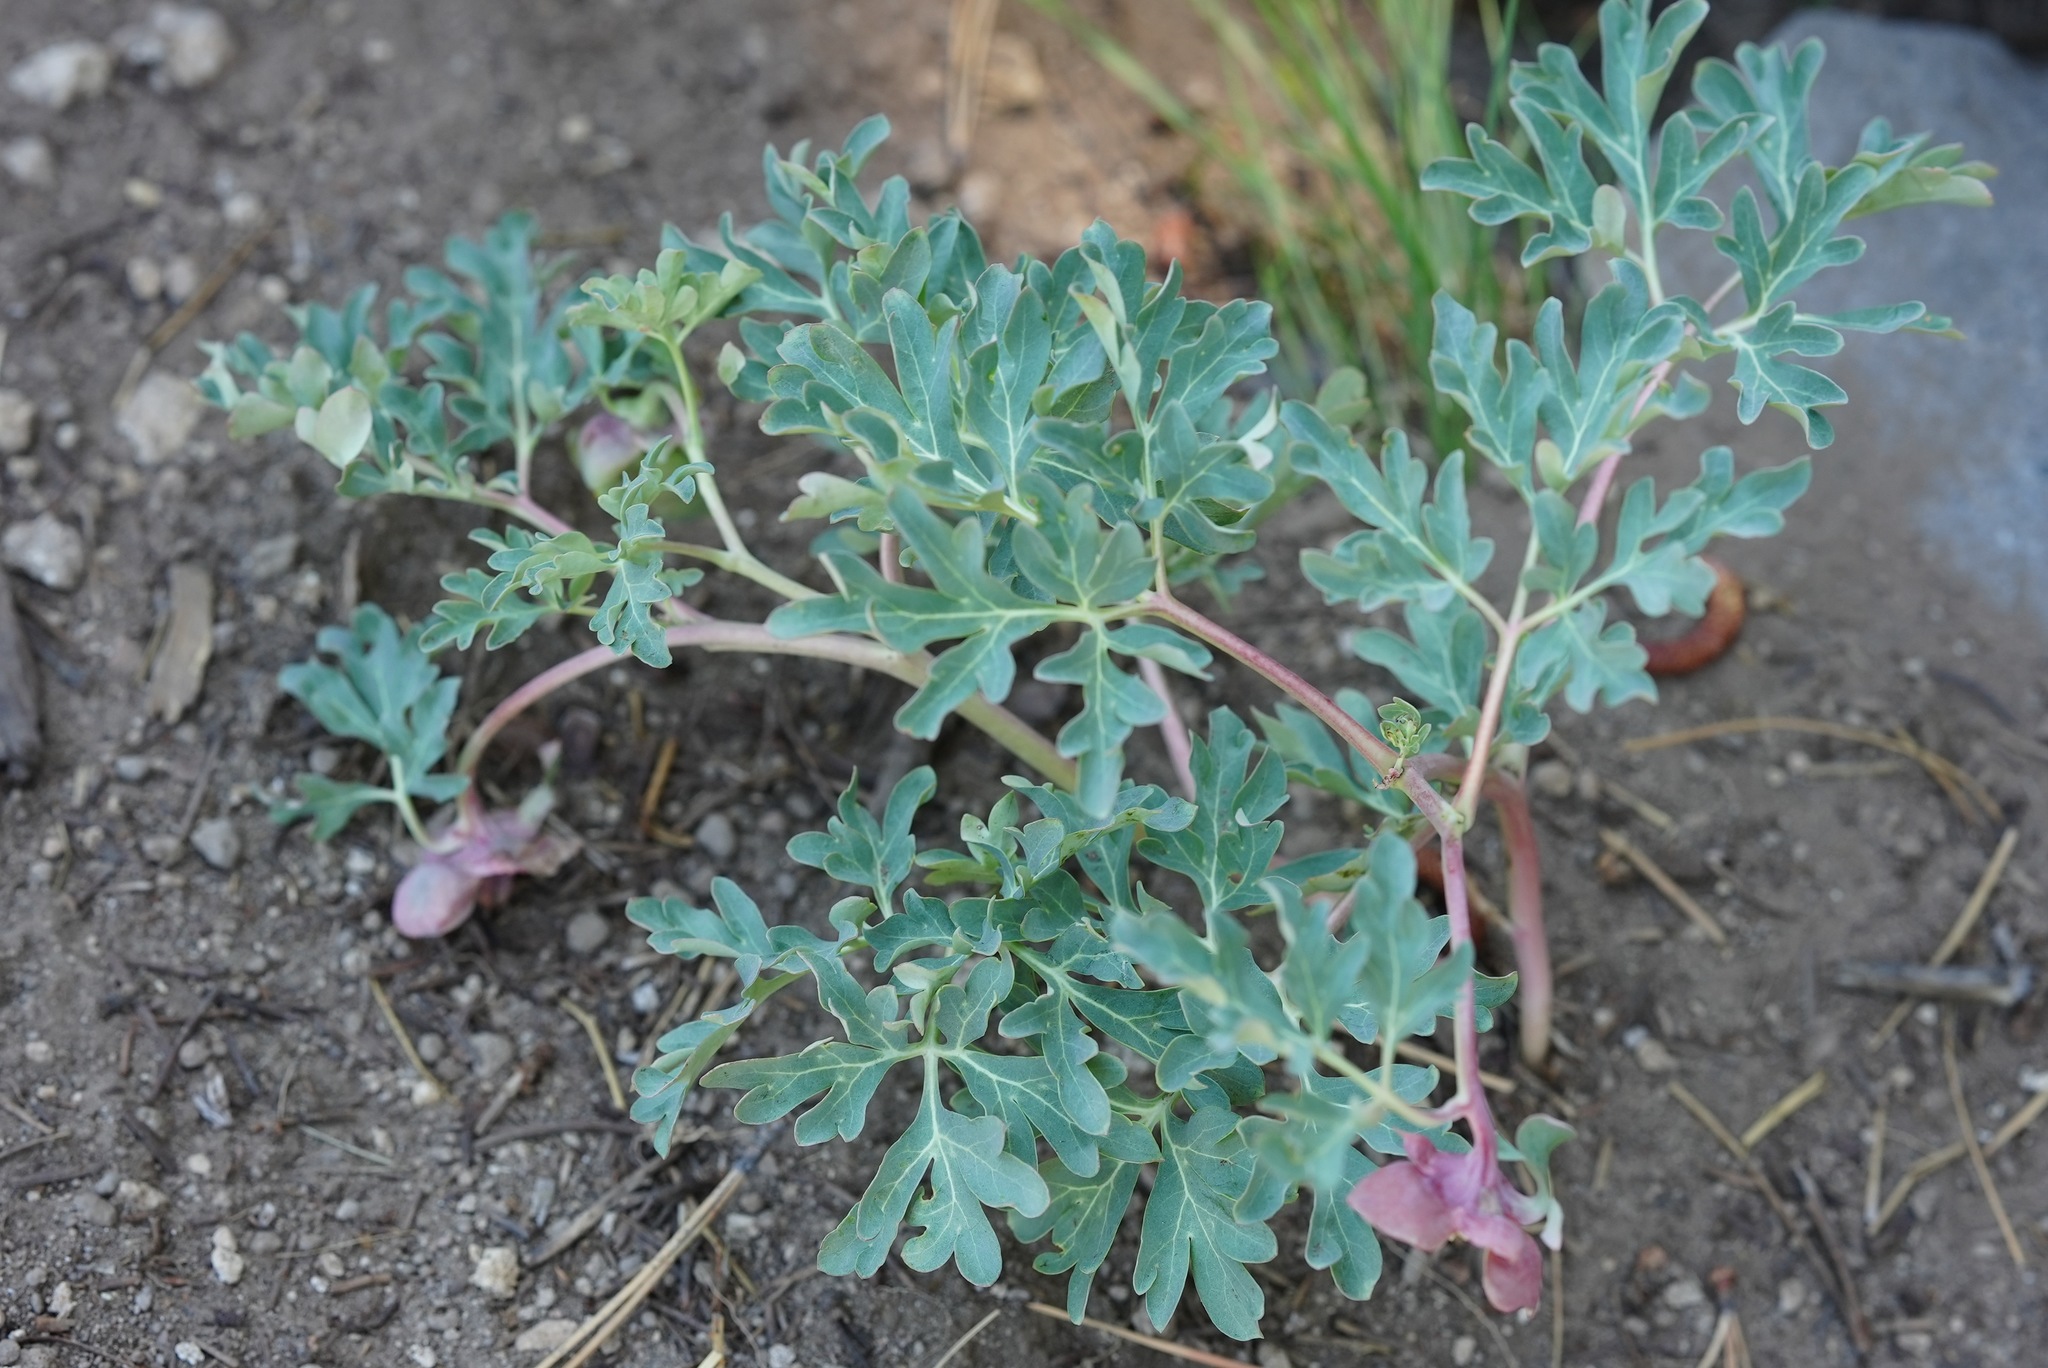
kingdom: Plantae
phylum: Tracheophyta
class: Magnoliopsida
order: Saxifragales
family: Paeoniaceae
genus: Paeonia
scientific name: Paeonia brownii
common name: Brown's peony
